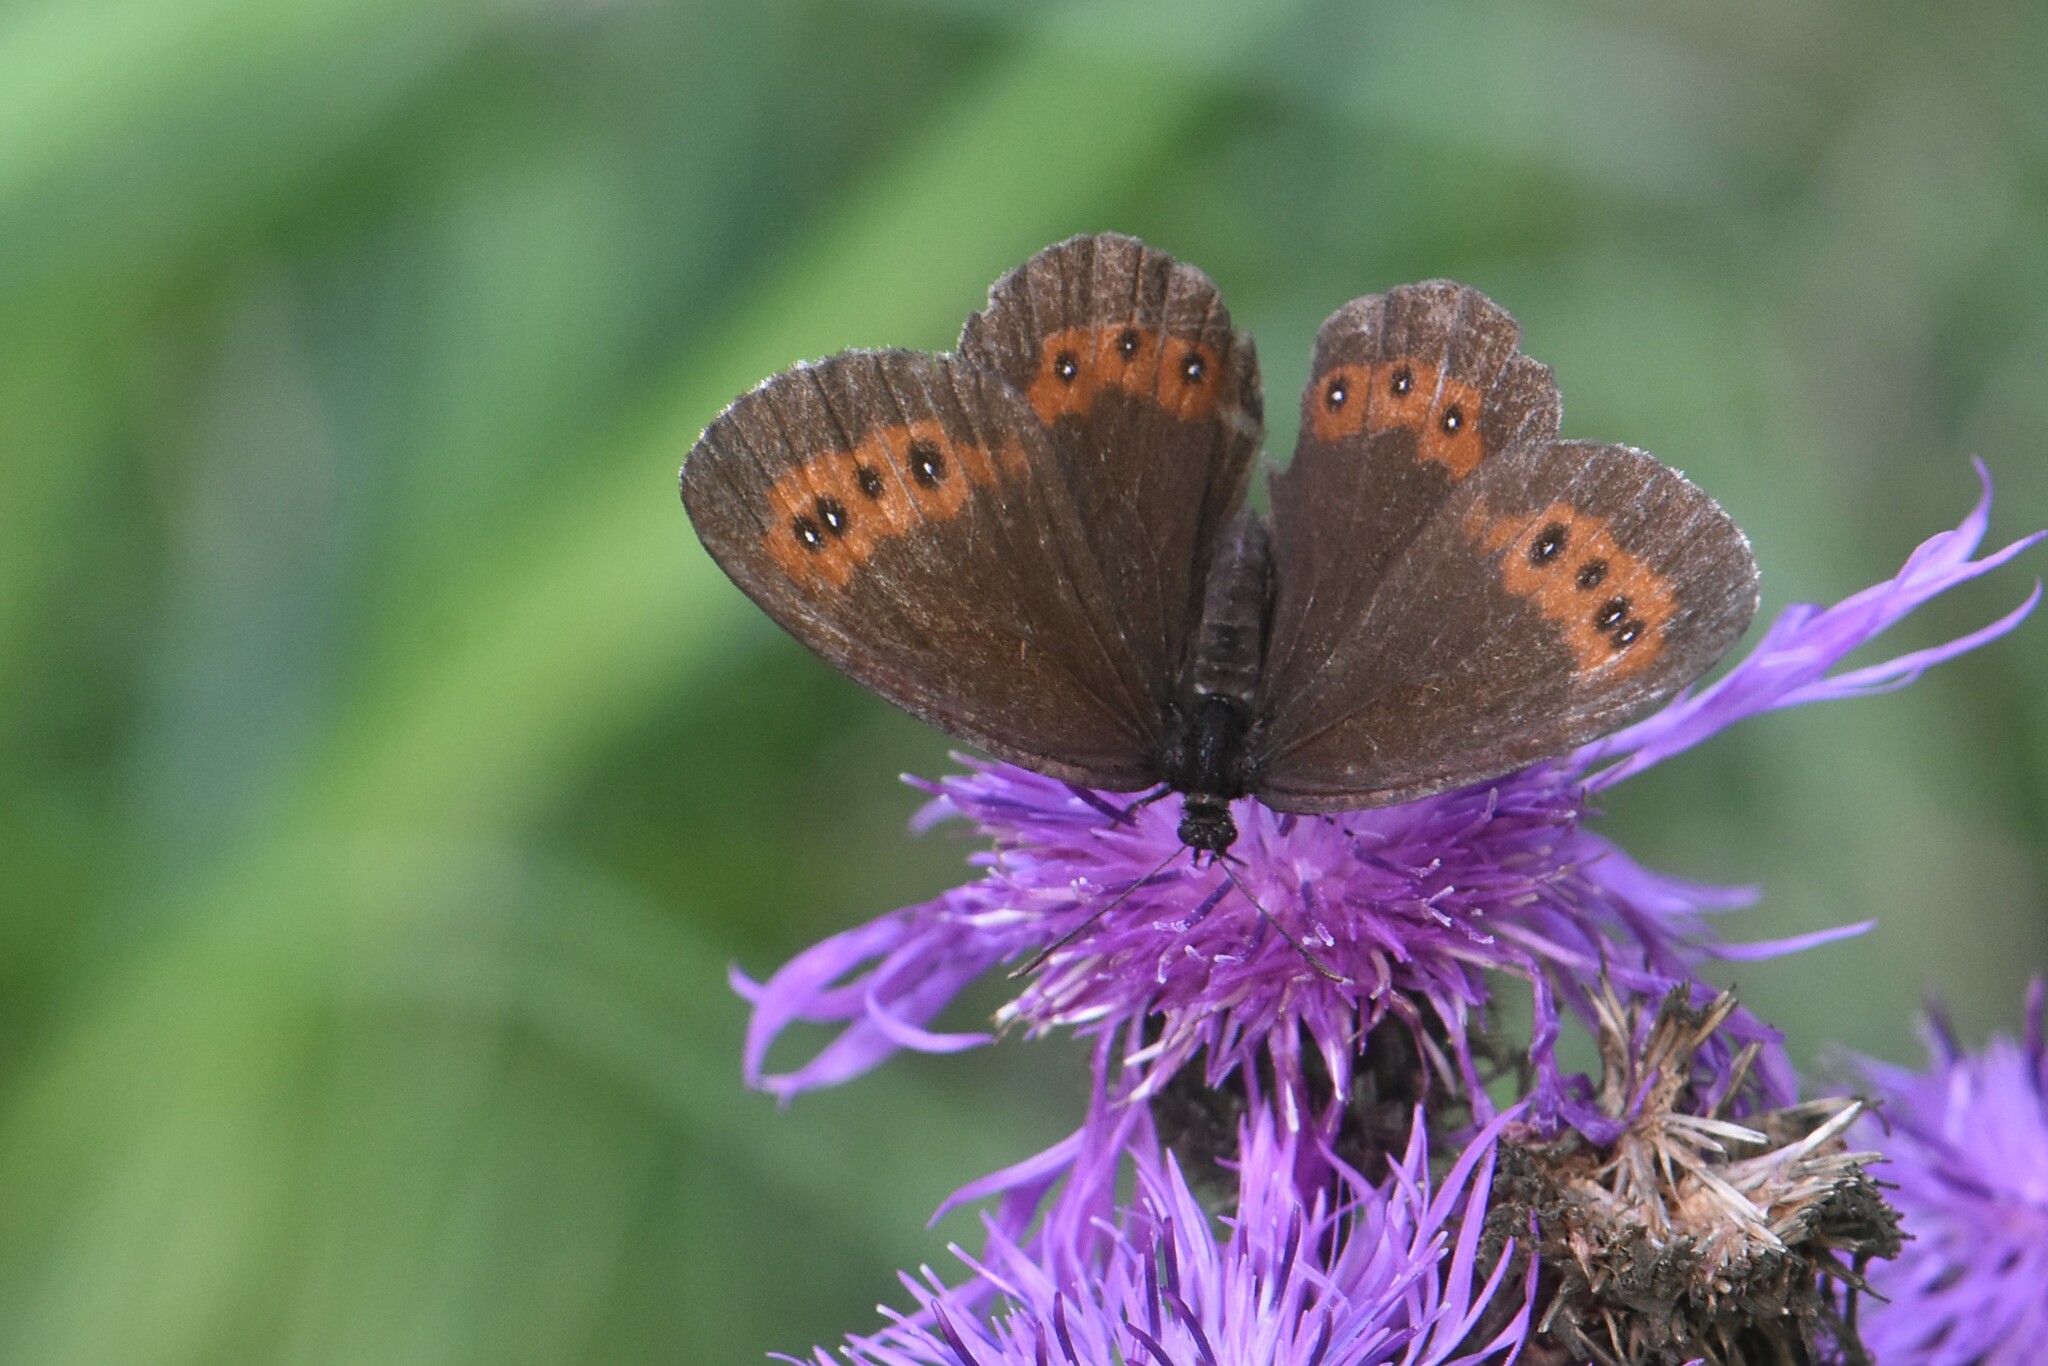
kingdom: Animalia
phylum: Arthropoda
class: Insecta
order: Lepidoptera
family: Nymphalidae
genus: Erebia
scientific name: Erebia ligea
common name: Arran brown
